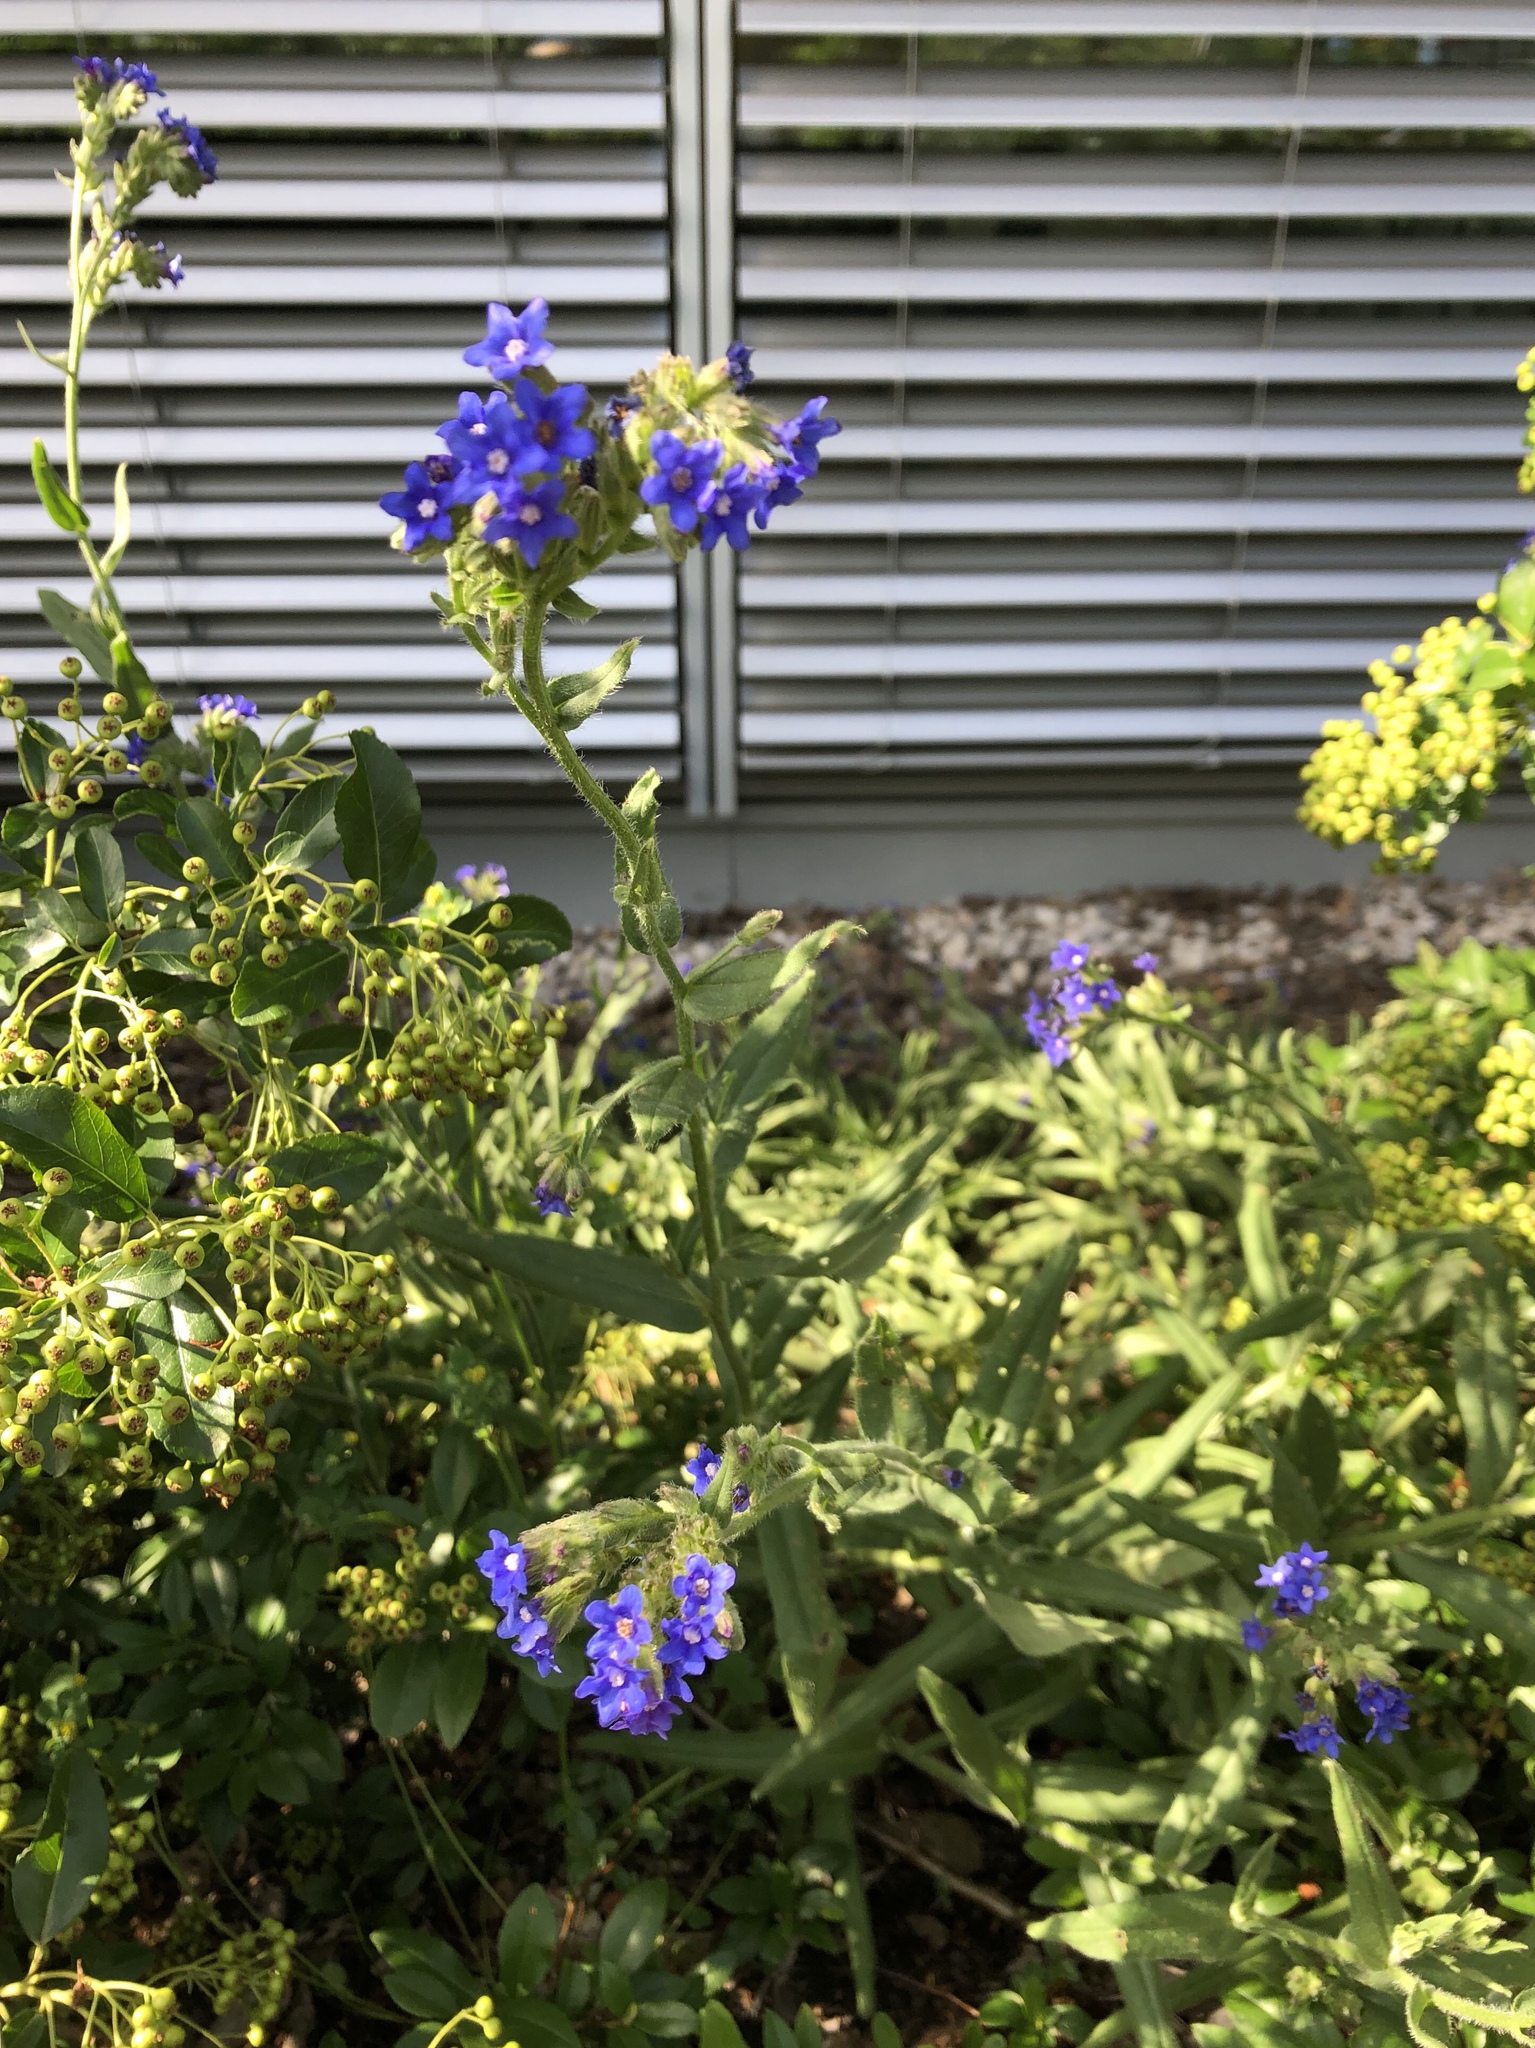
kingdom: Plantae
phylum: Tracheophyta
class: Magnoliopsida
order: Boraginales
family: Boraginaceae
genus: Anchusa
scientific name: Anchusa officinalis
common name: Alkanet
